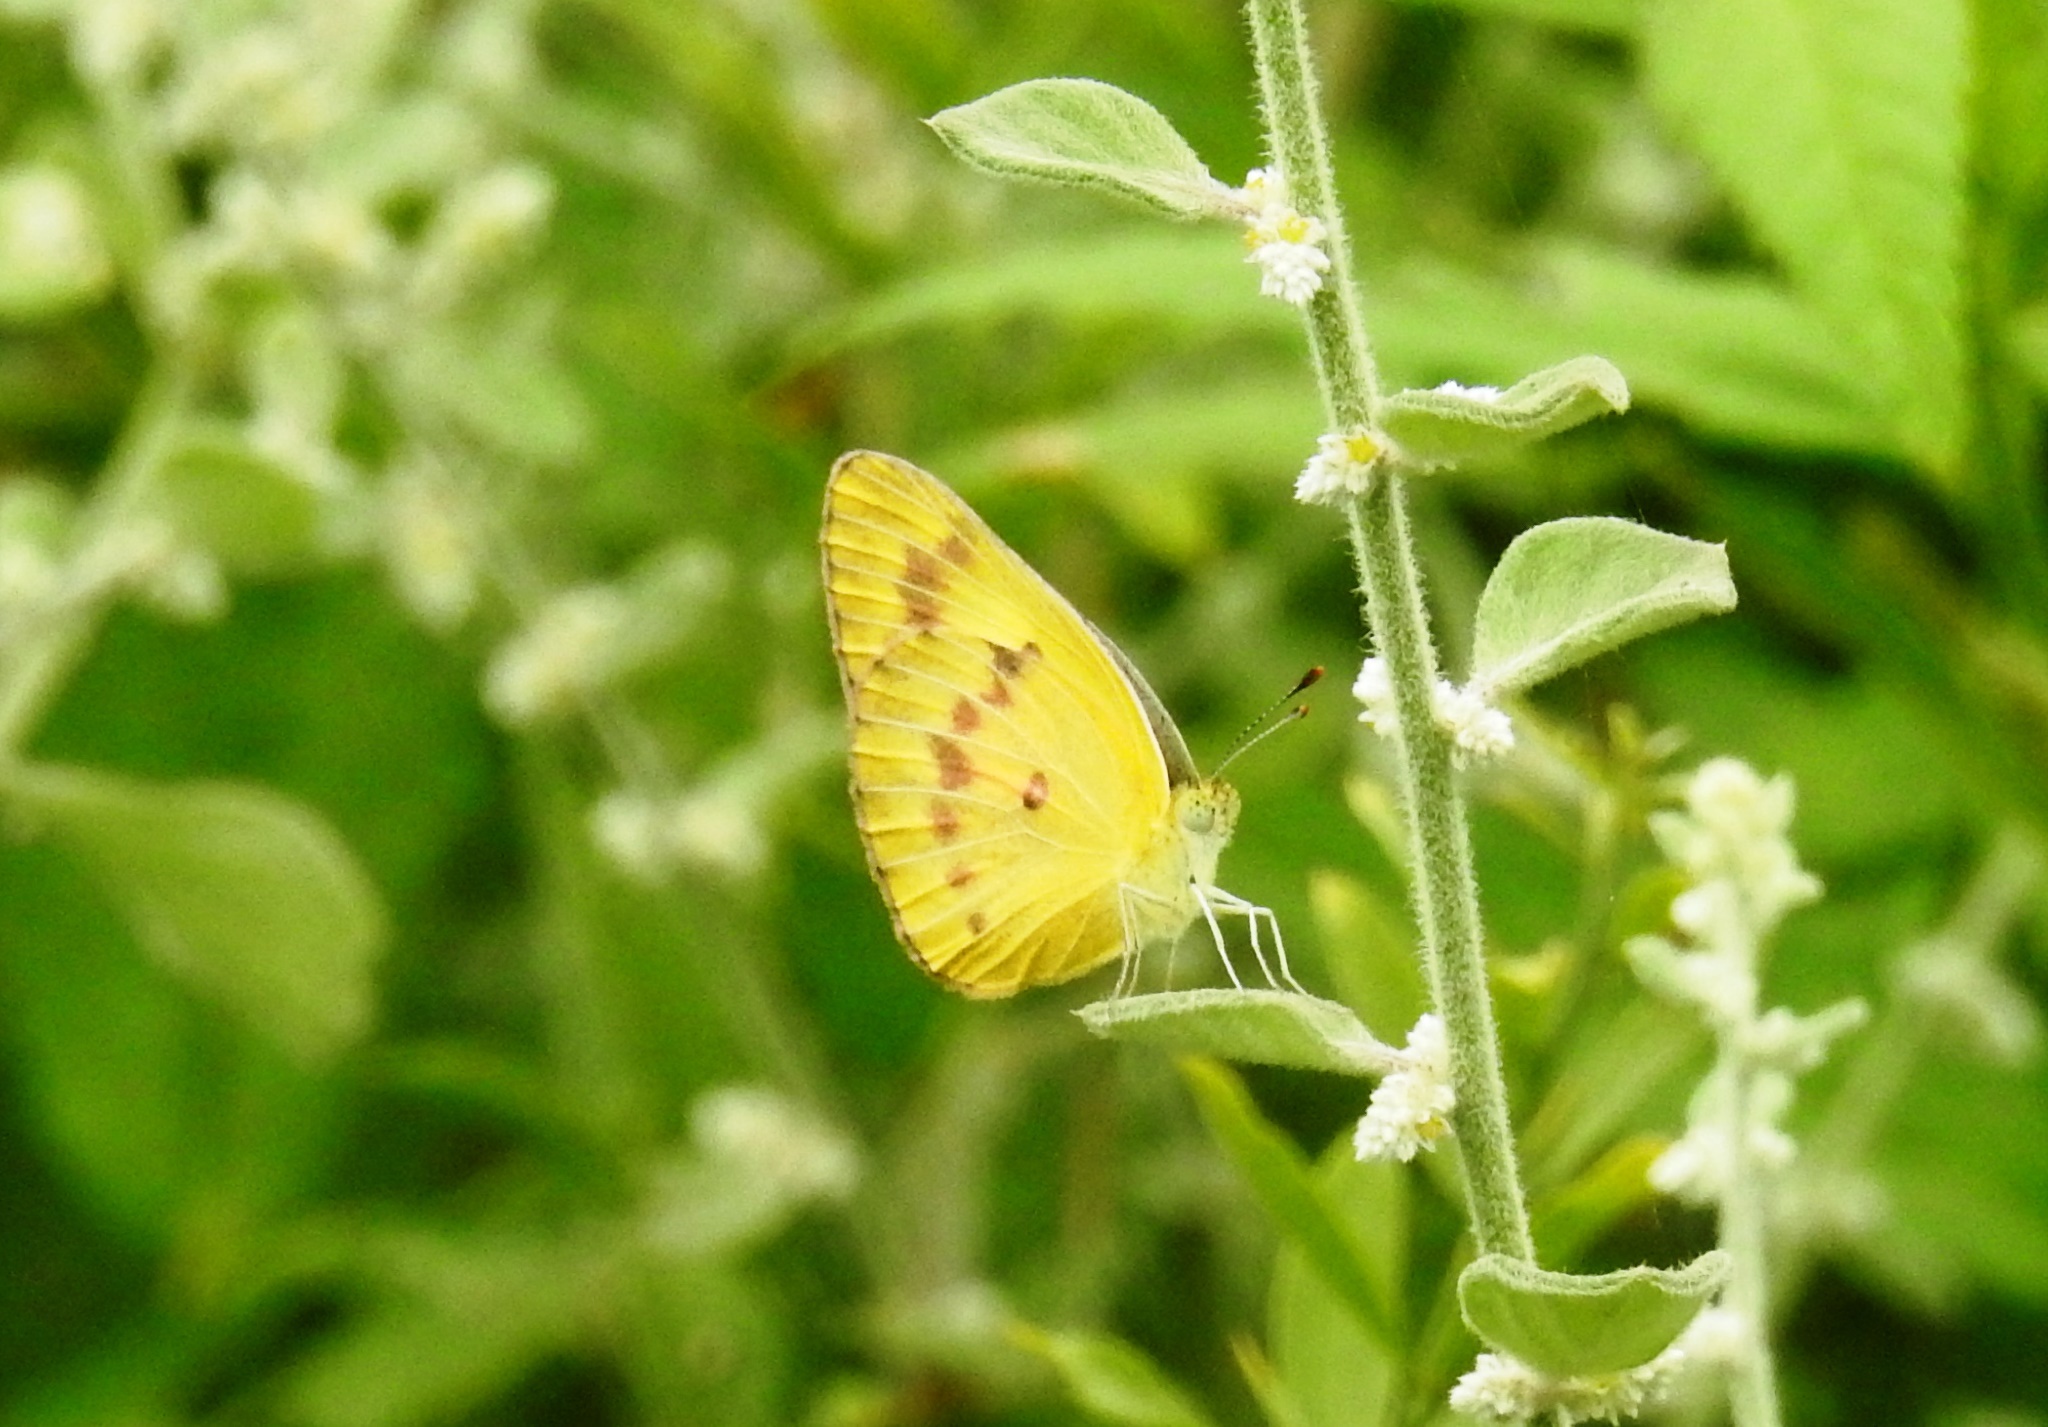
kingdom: Animalia
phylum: Arthropoda
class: Insecta
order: Lepidoptera
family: Pieridae
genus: Colotis
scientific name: Colotis amata
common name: Small salmon arab
